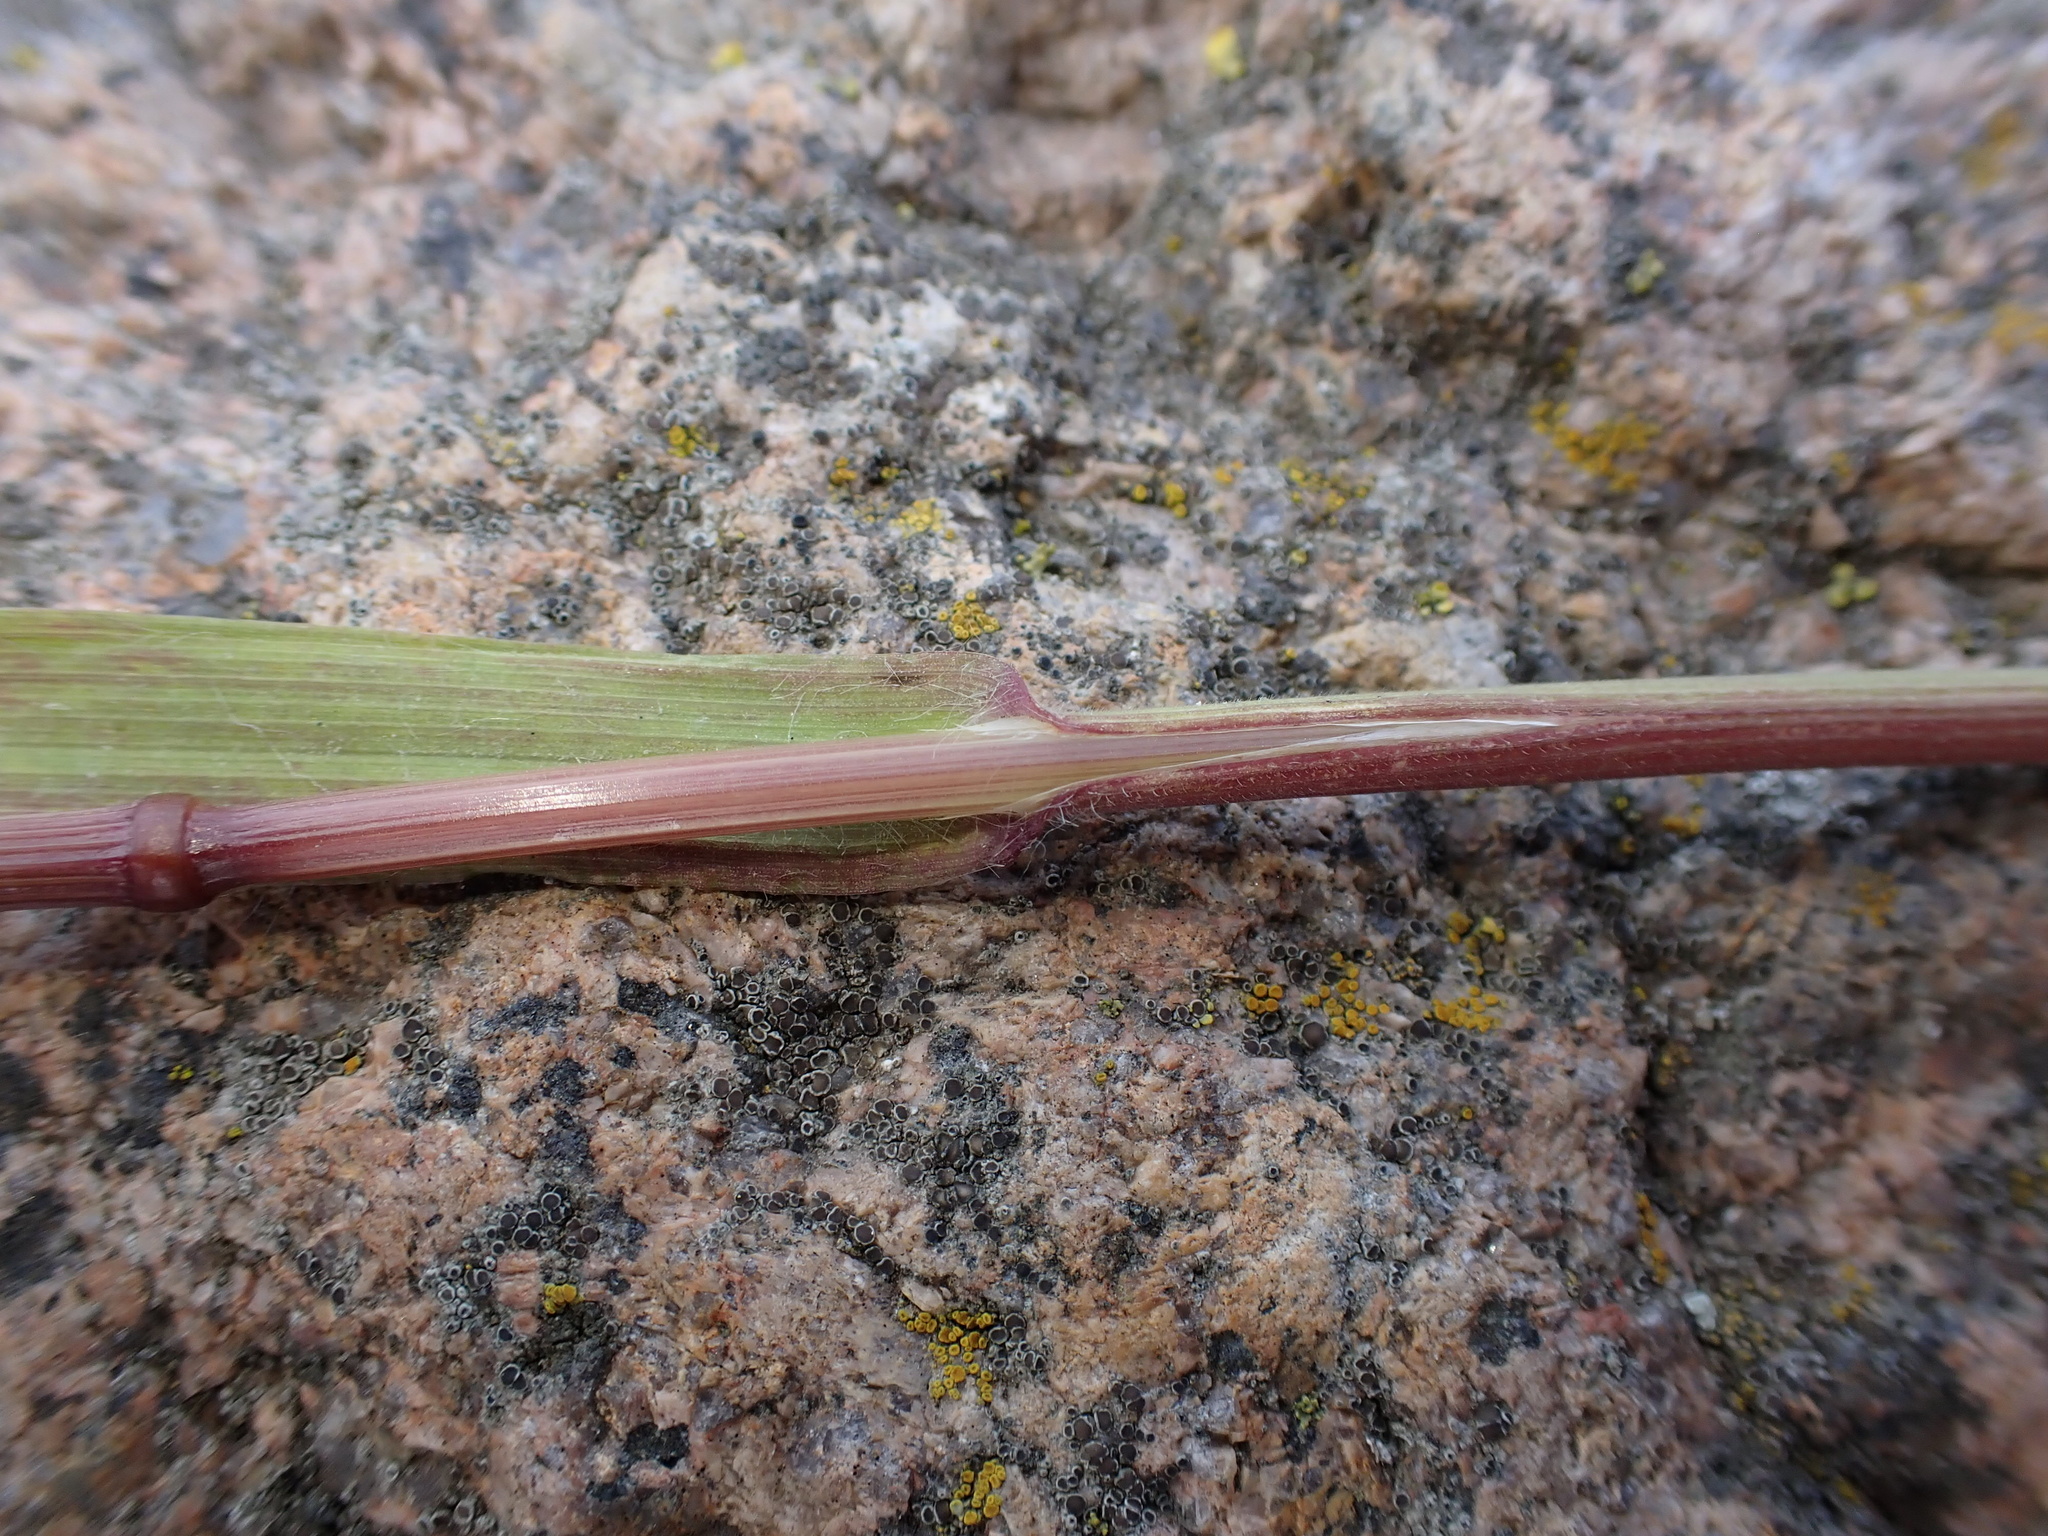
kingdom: Plantae
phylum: Tracheophyta
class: Liliopsida
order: Poales
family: Poaceae
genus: Bromus
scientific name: Bromus sterilis
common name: Poverty brome
